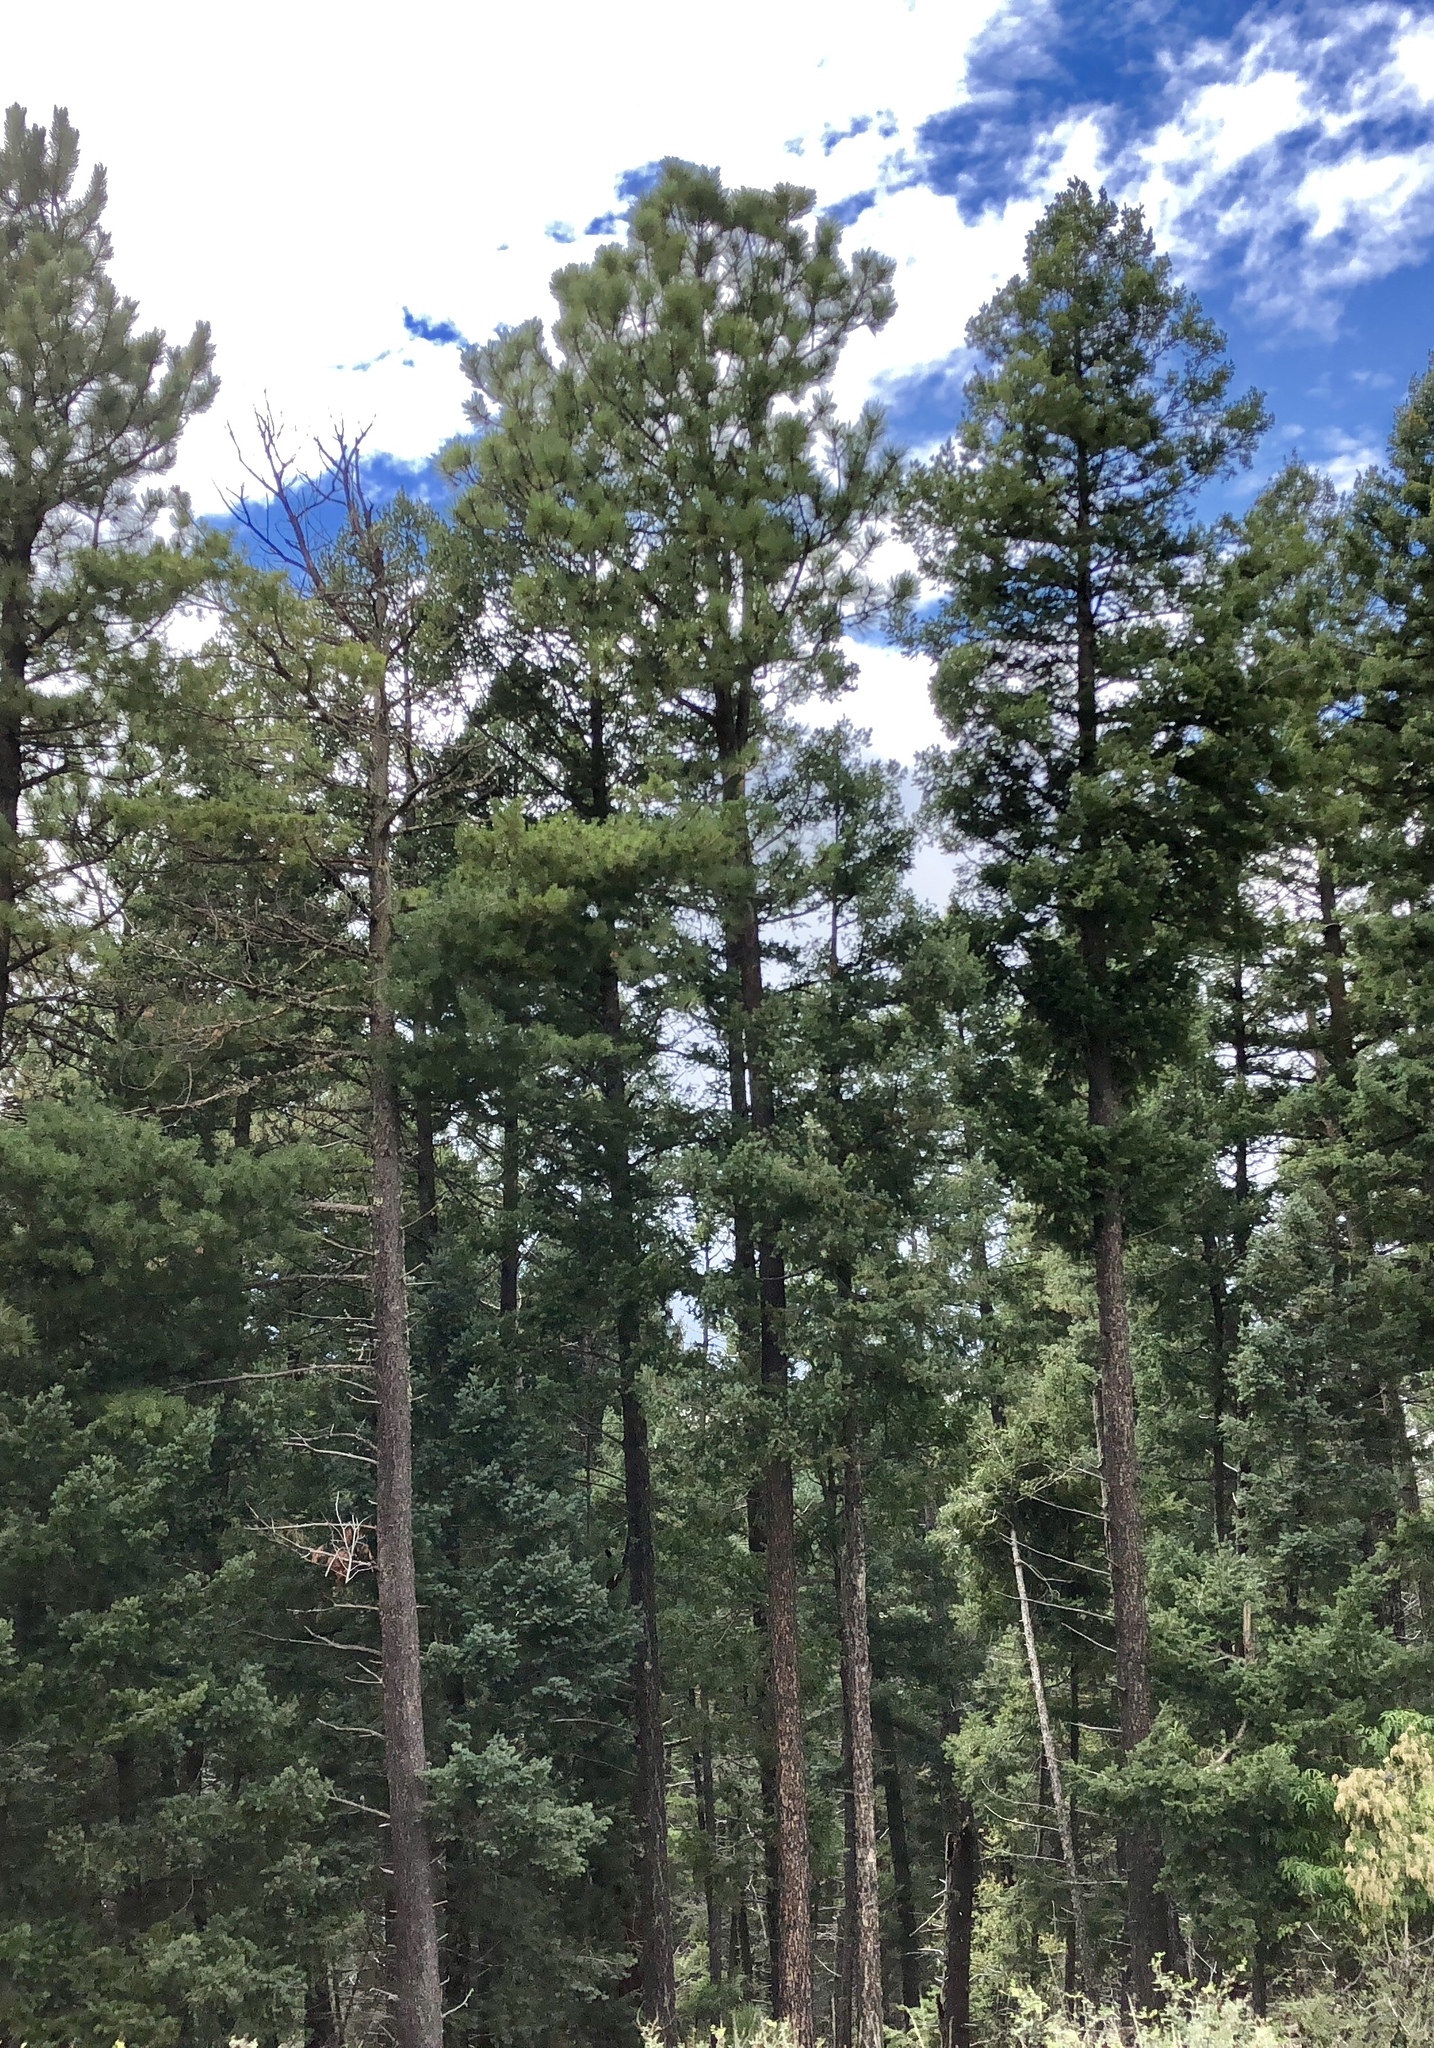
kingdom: Plantae
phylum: Tracheophyta
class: Pinopsida
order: Pinales
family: Pinaceae
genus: Pinus
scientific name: Pinus ponderosa
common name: Western yellow-pine
